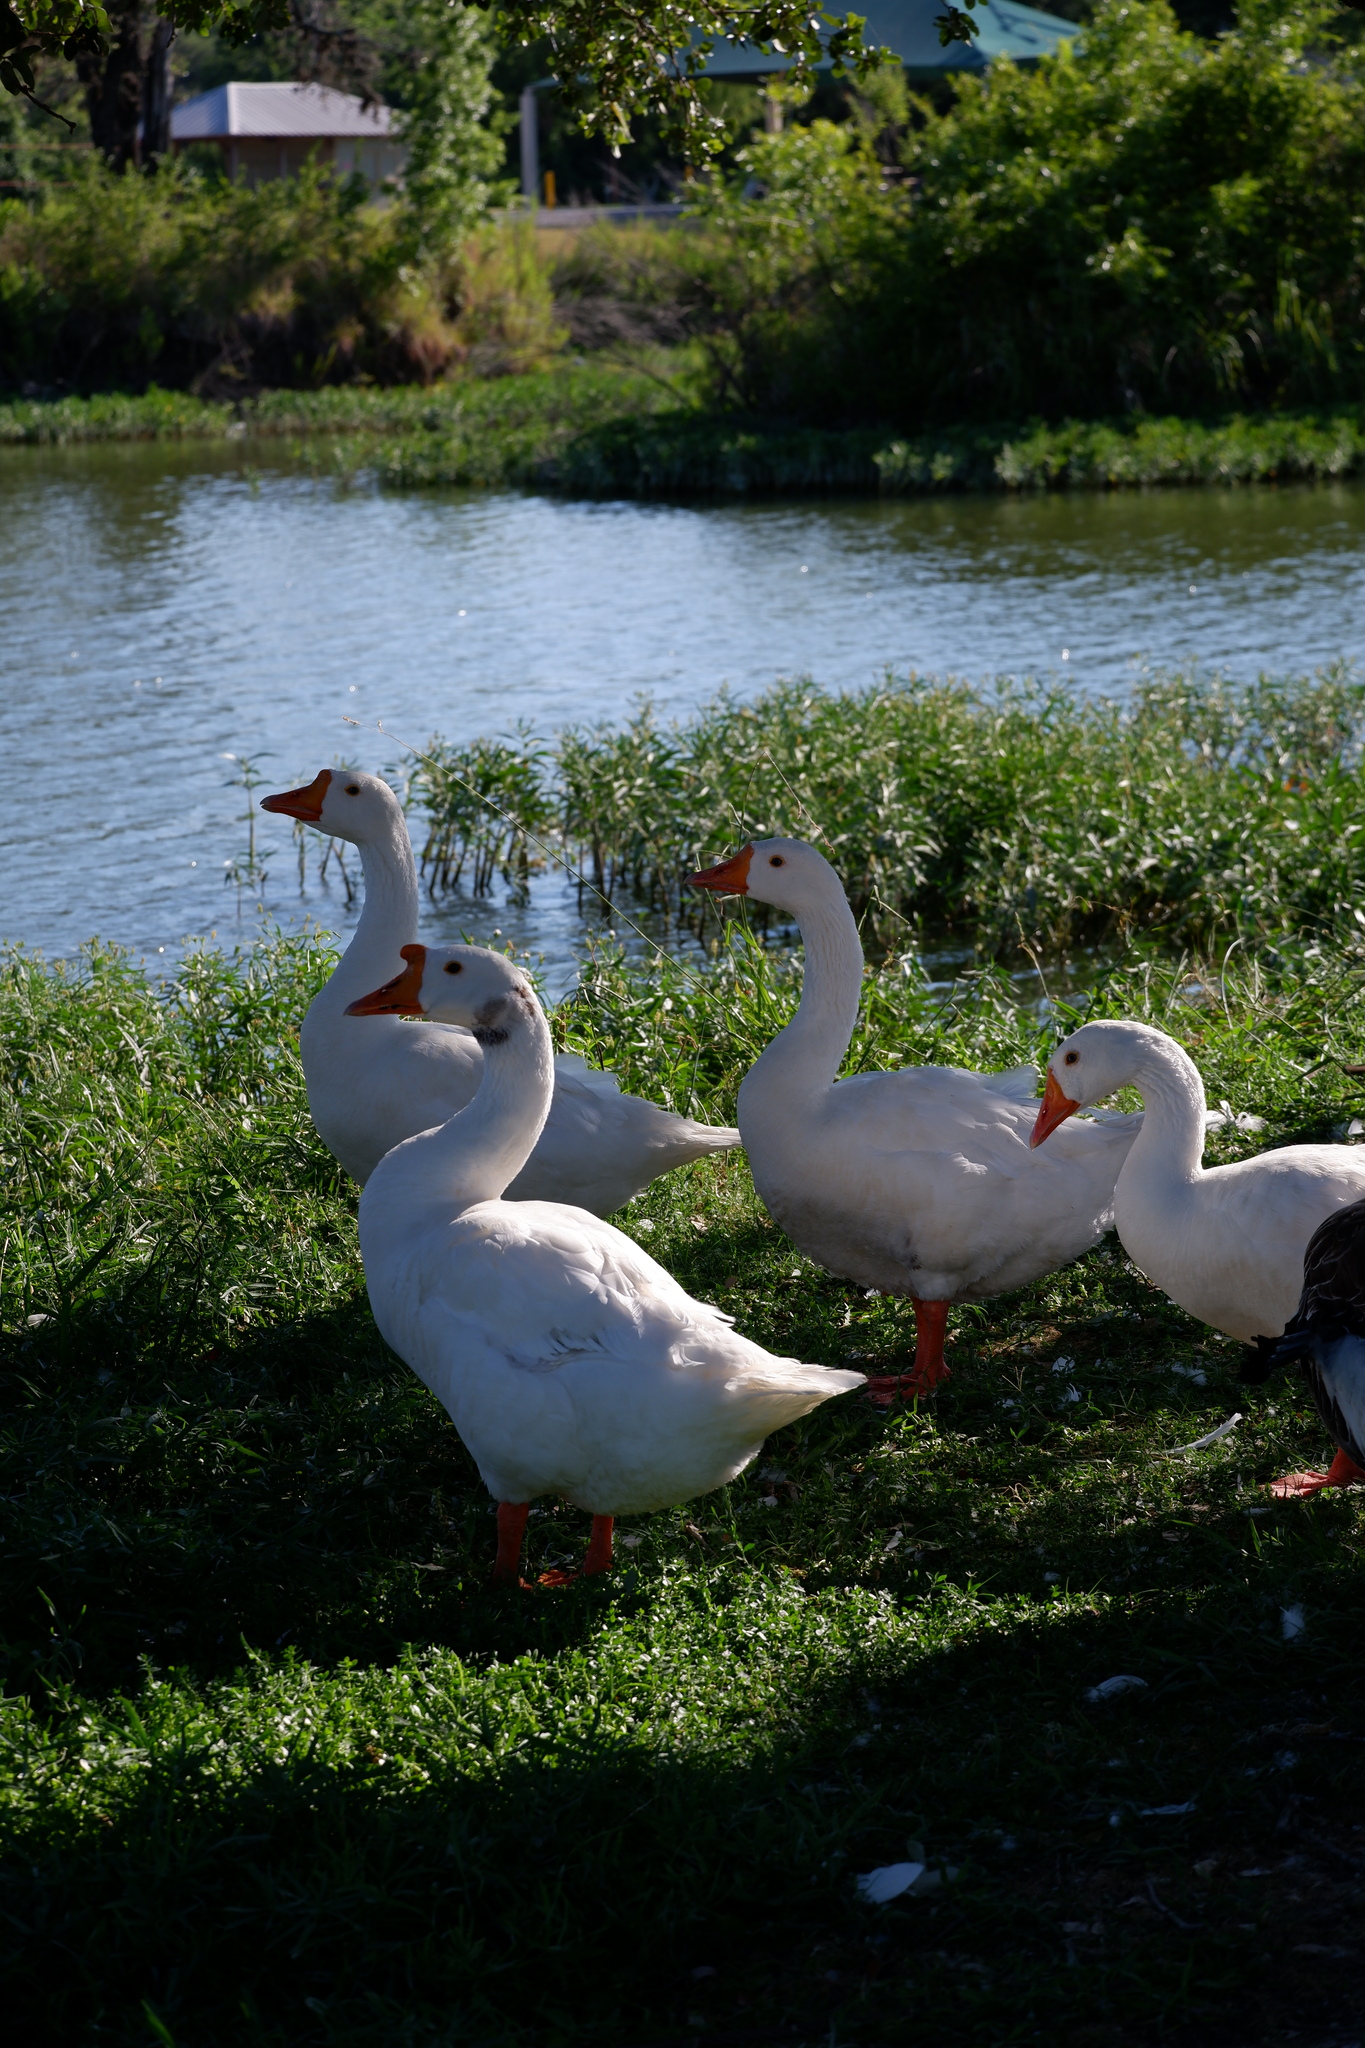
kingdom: Animalia
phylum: Chordata
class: Aves
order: Anseriformes
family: Anatidae
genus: Anser
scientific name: Anser cygnoides
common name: Swan goose
